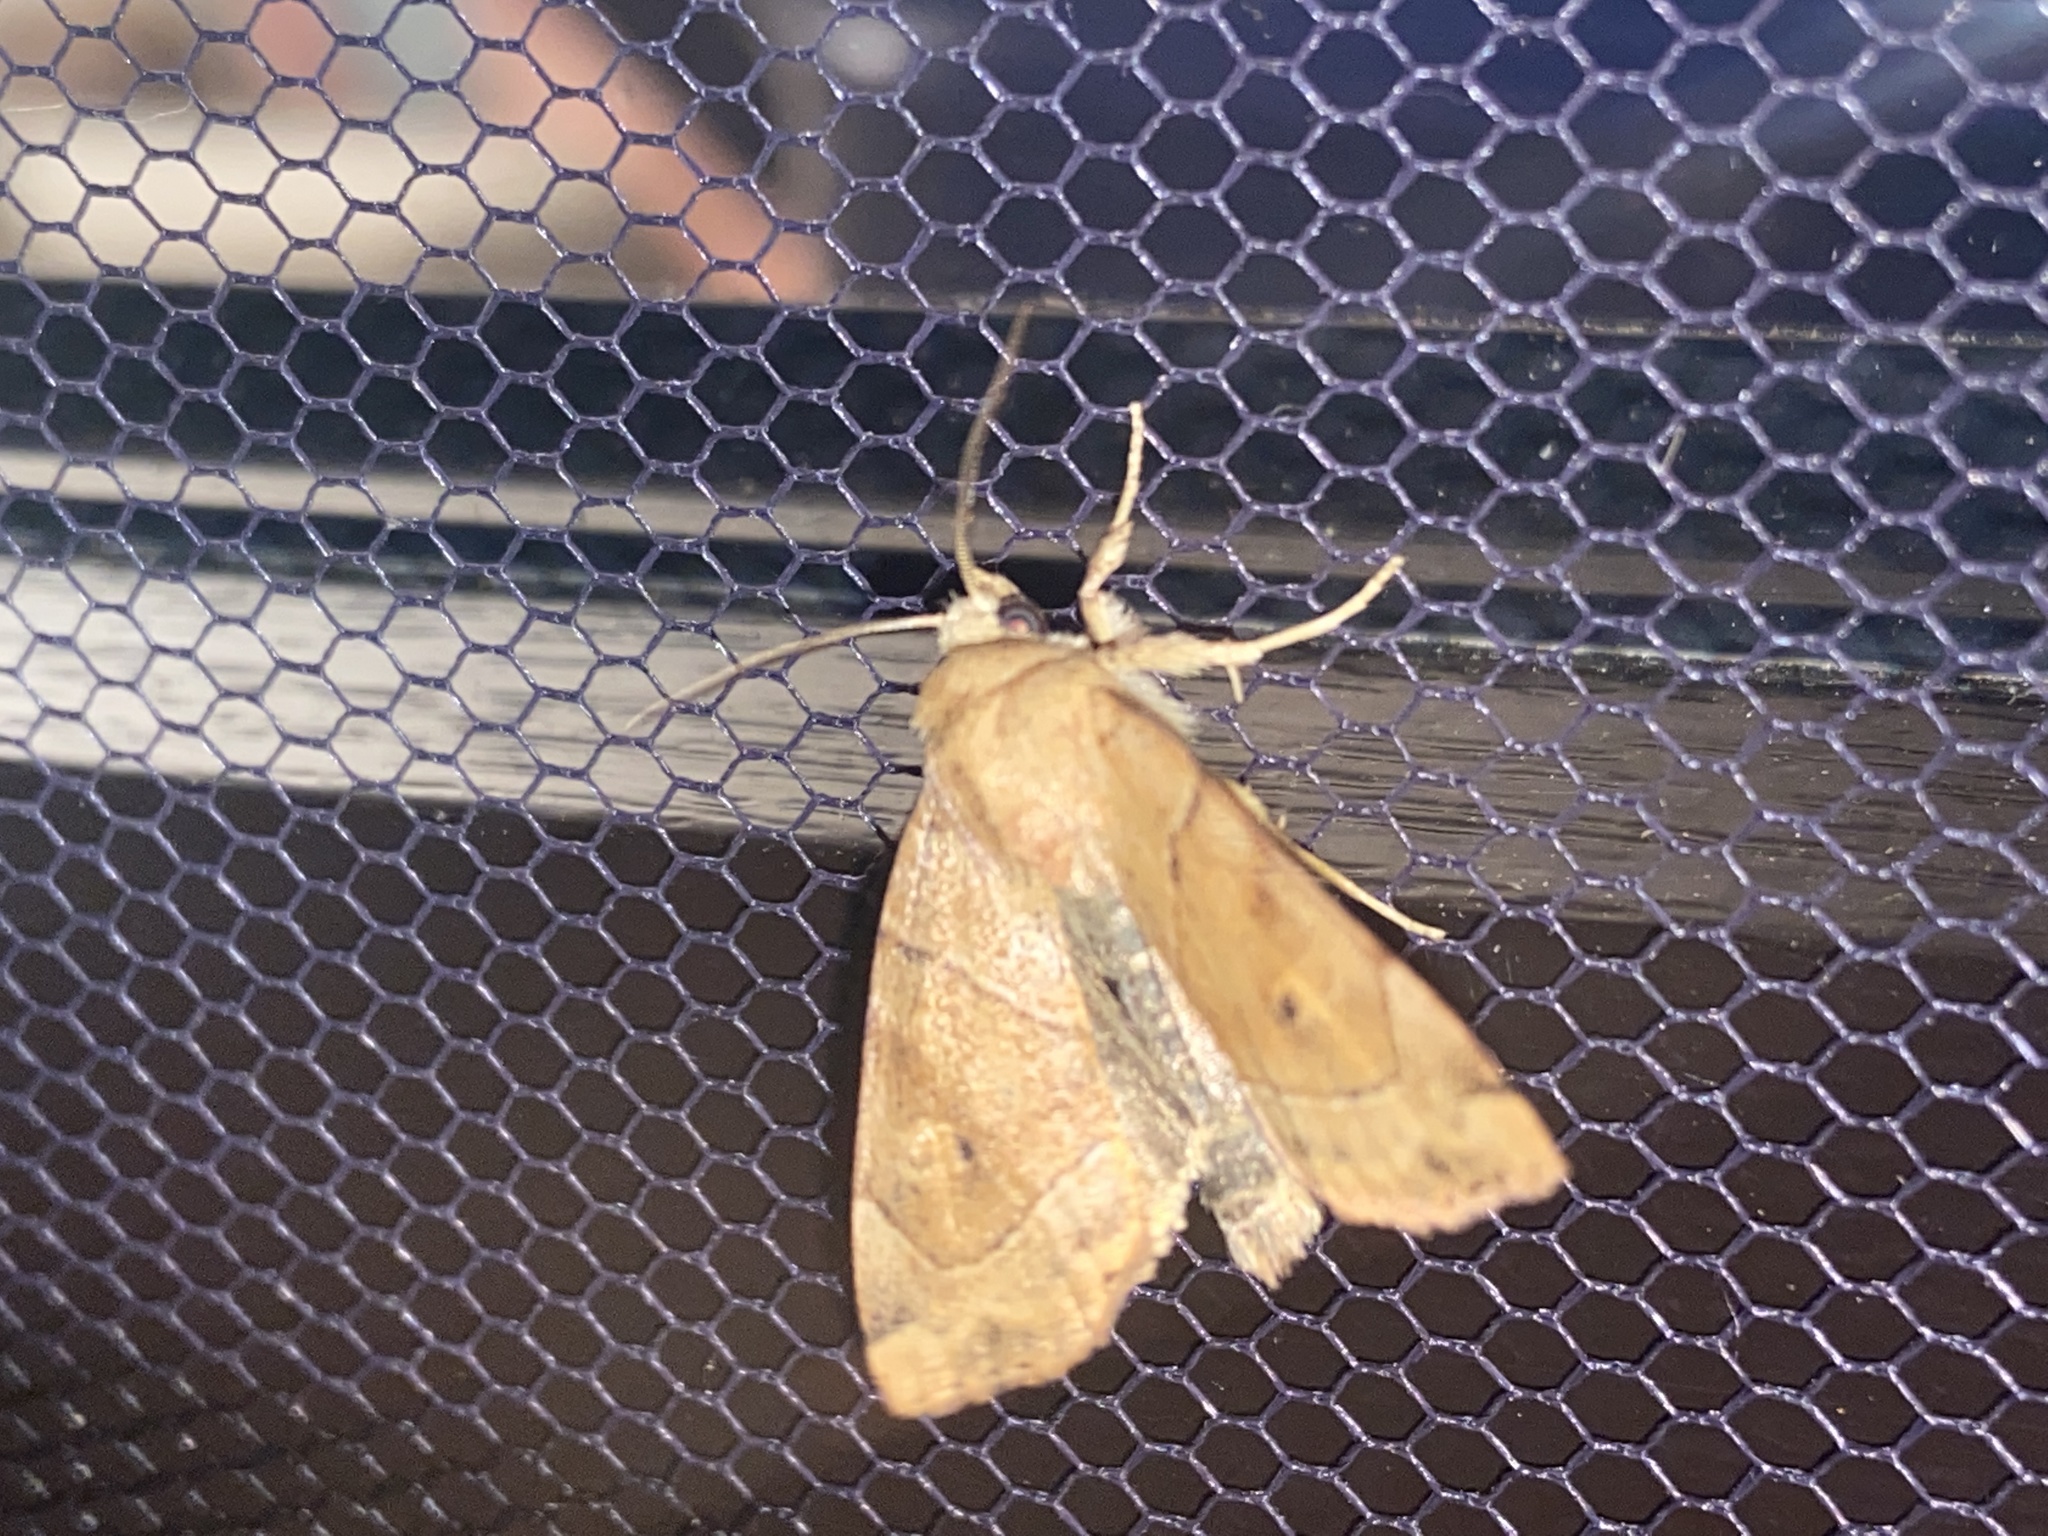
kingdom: Animalia
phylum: Arthropoda
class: Insecta
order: Lepidoptera
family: Noctuidae
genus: Cosmia
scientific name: Cosmia trapezina
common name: Dun-bar
